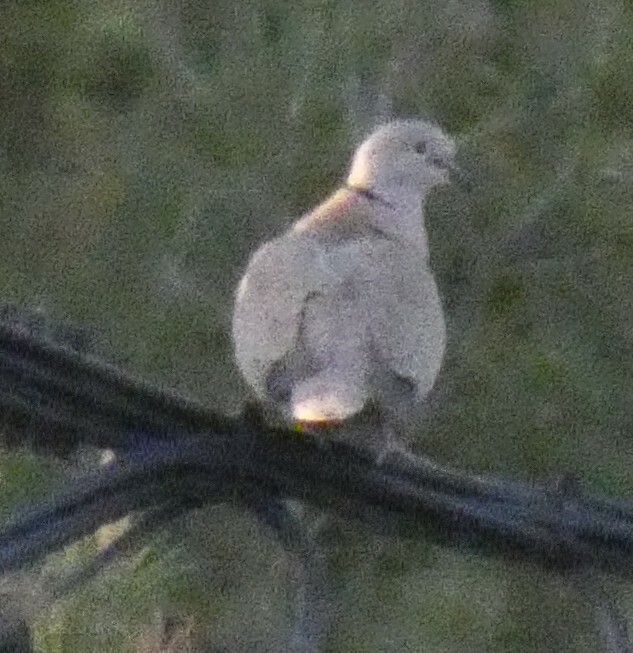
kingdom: Animalia
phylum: Chordata
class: Aves
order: Columbiformes
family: Columbidae
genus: Streptopelia
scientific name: Streptopelia decaocto
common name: Eurasian collared dove
